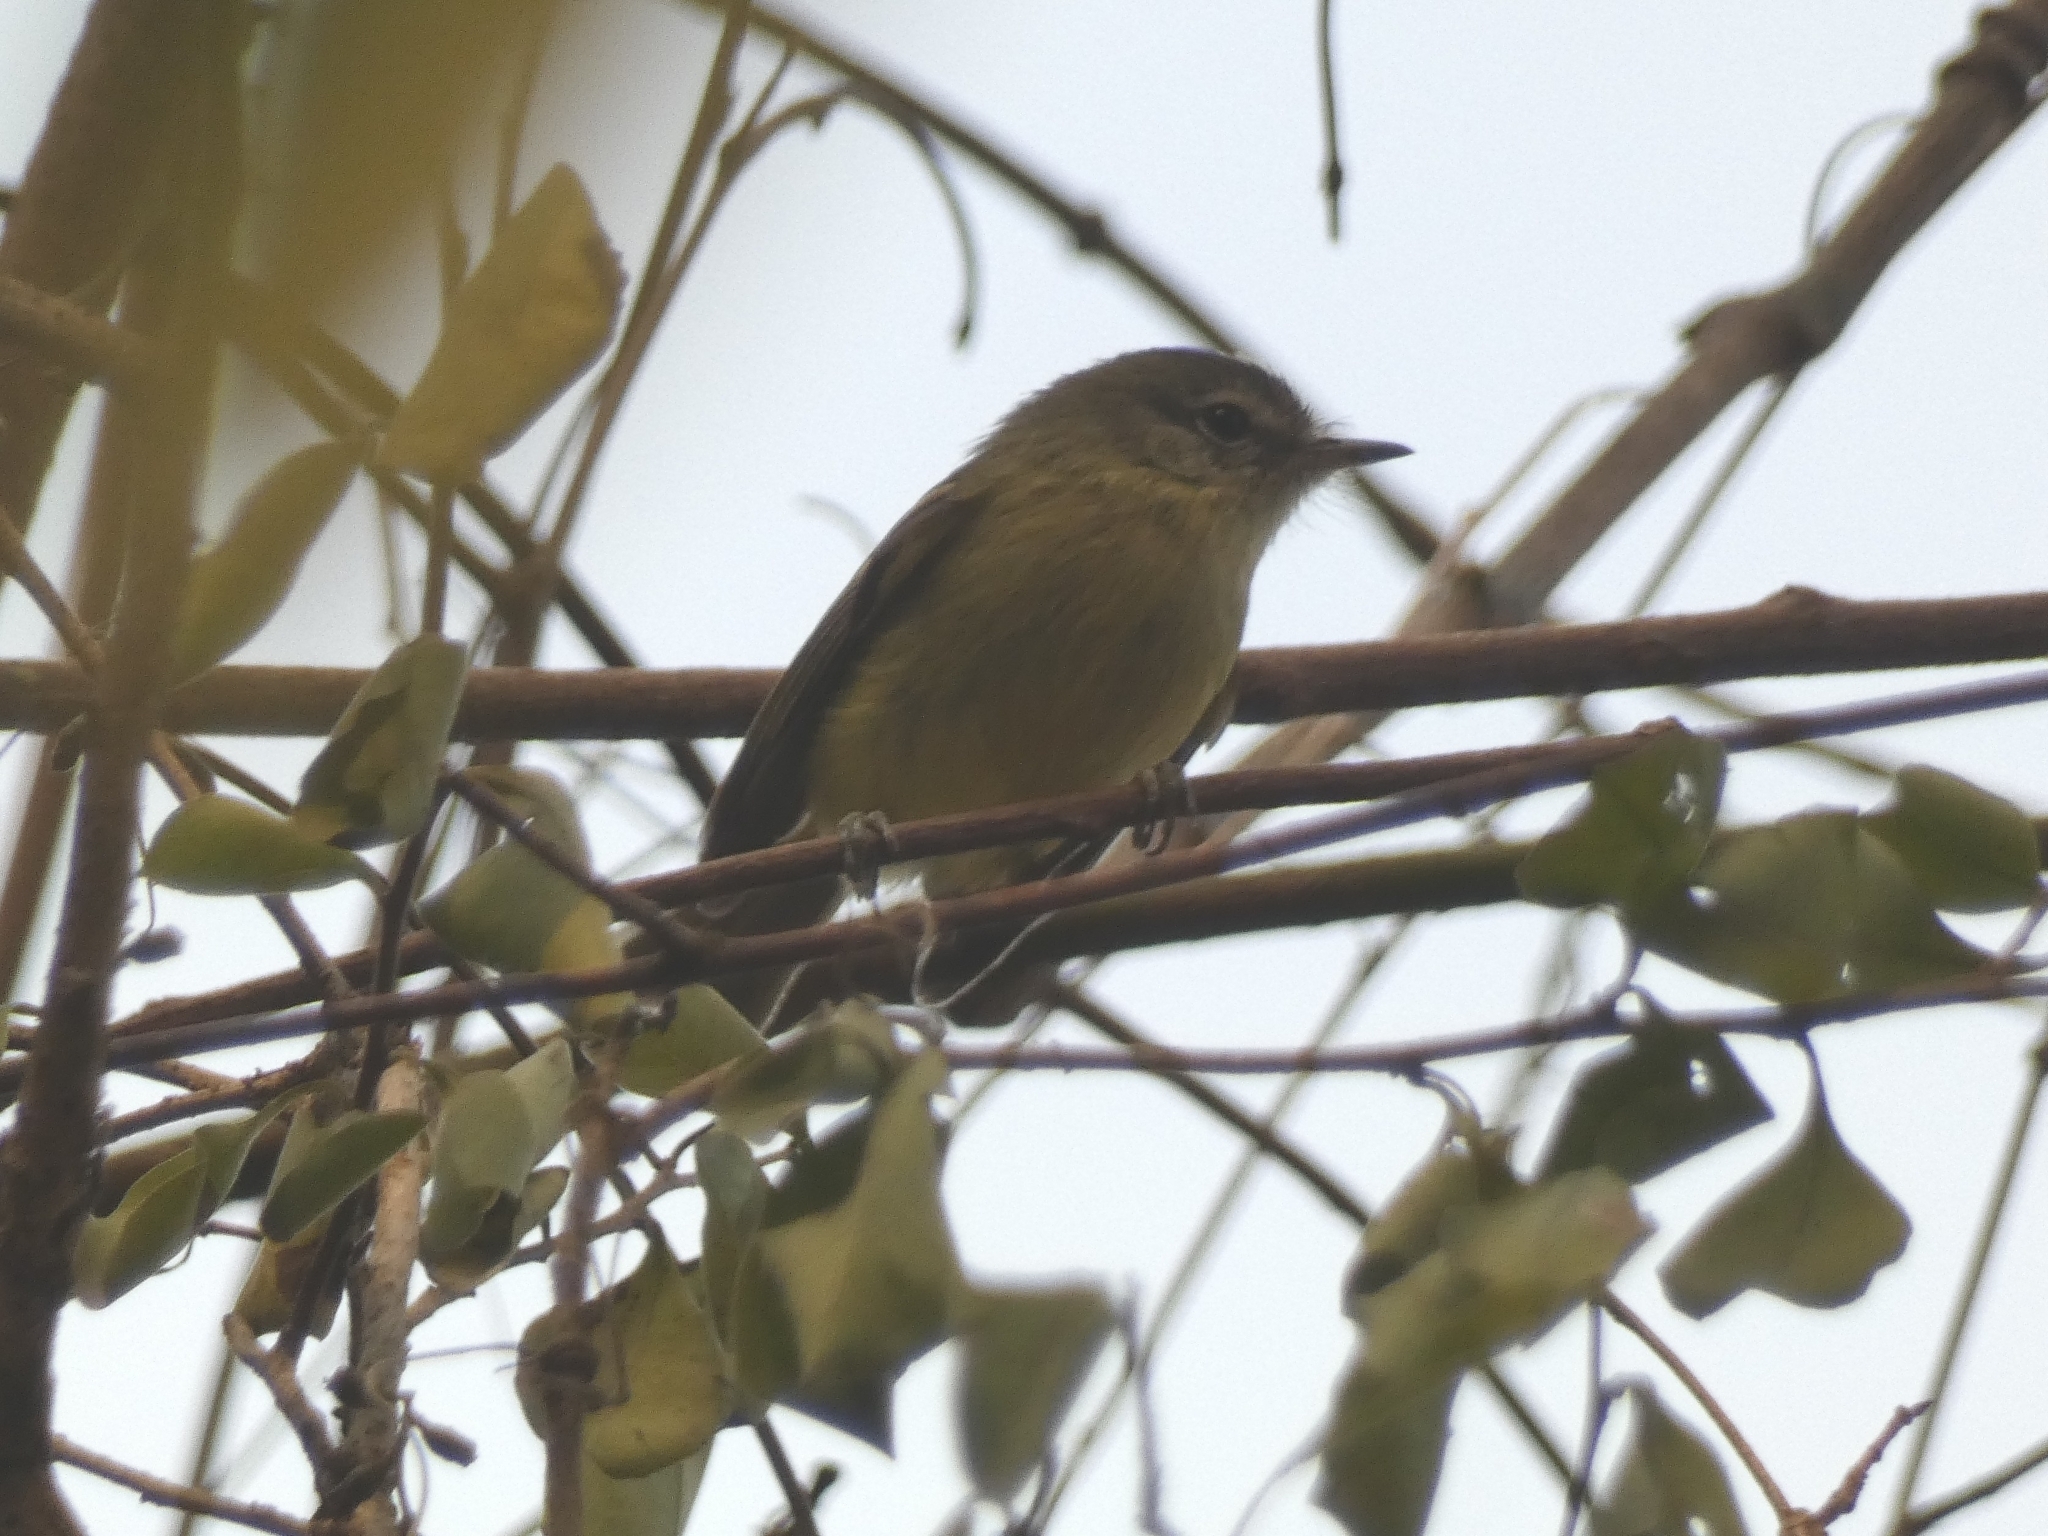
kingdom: Animalia
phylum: Chordata
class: Aves
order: Passeriformes
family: Tyrannidae
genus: Phylloscartes
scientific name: Phylloscartes ventralis
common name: Mottle-cheeked tyrannulet
